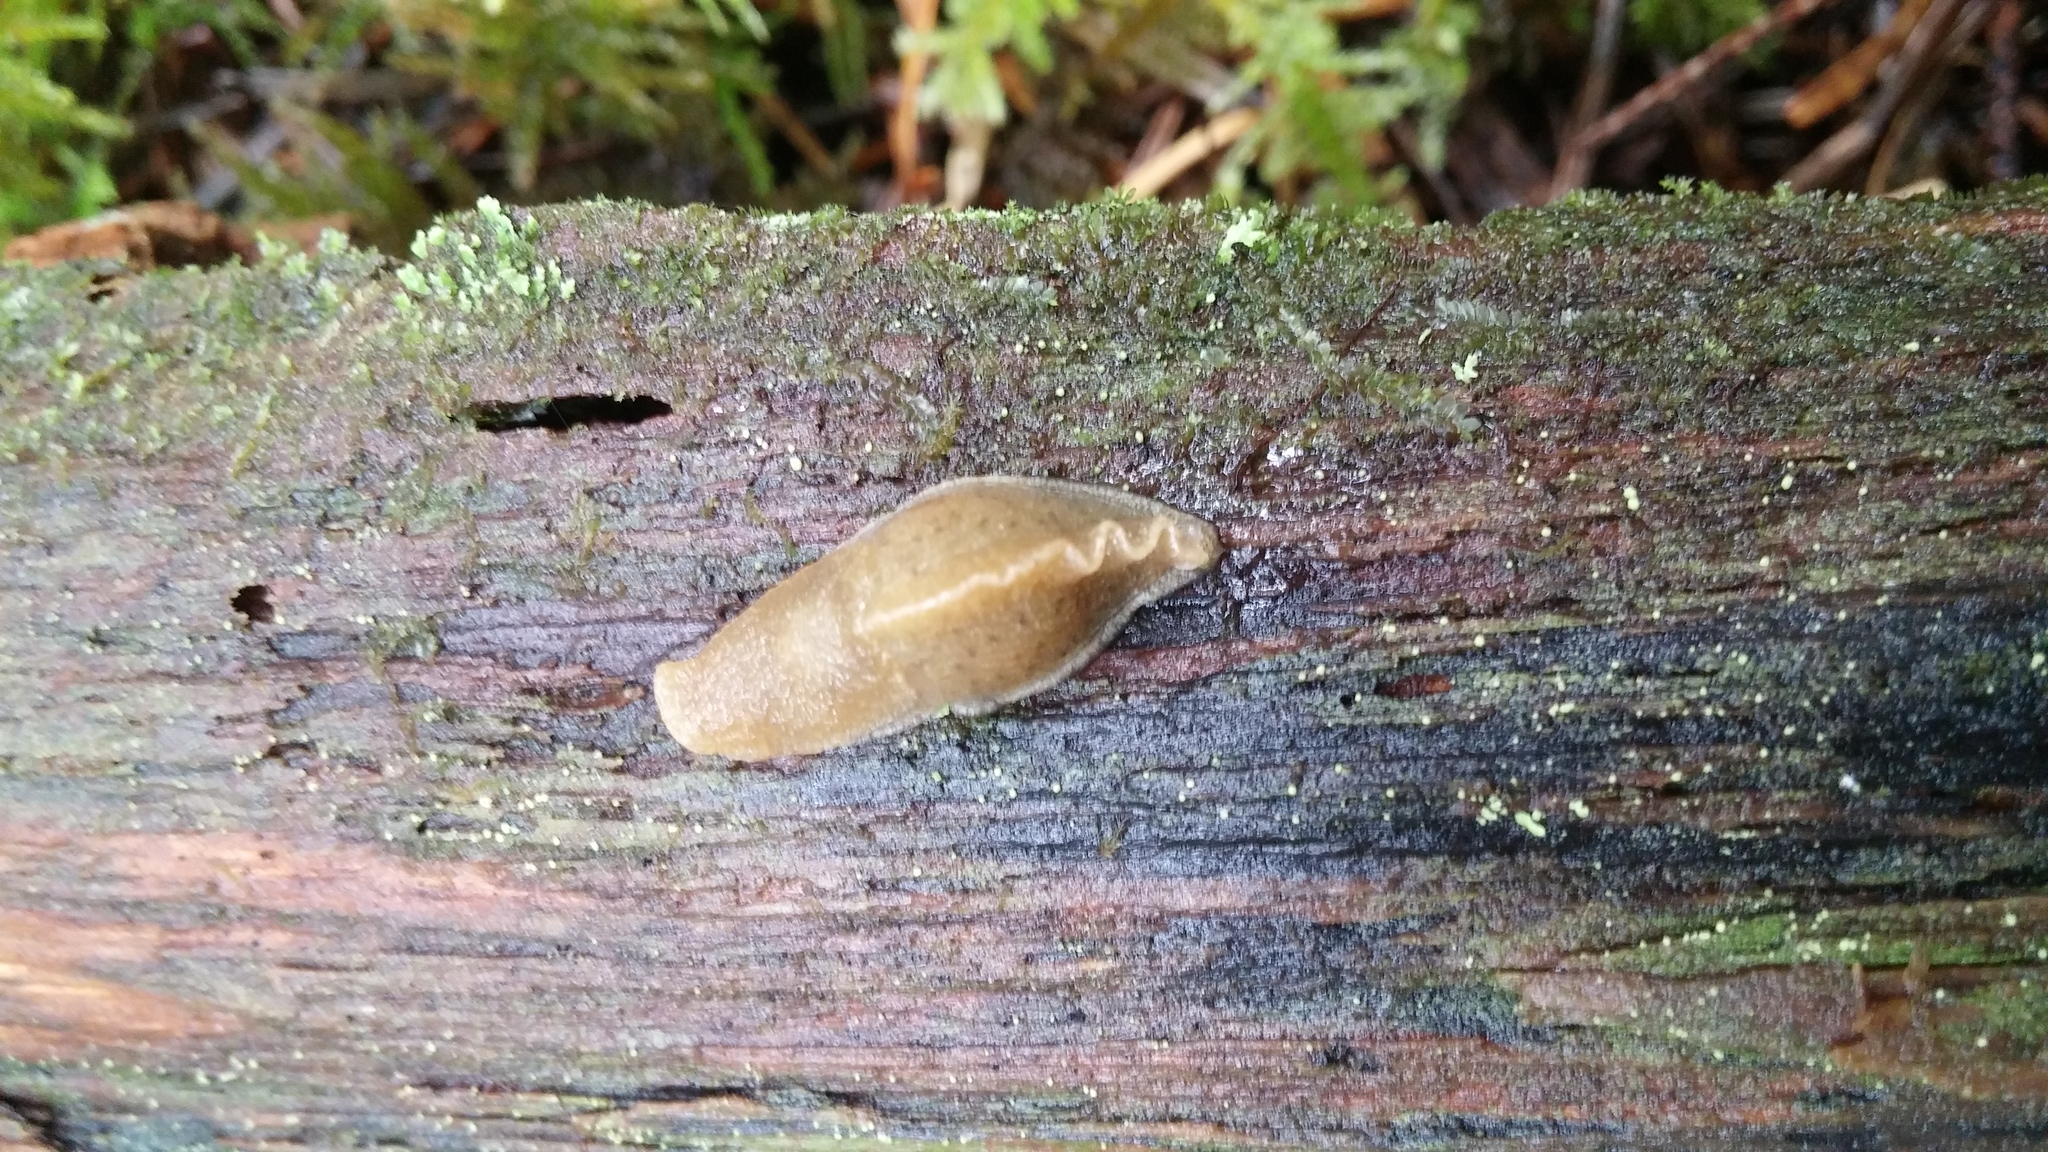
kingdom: Animalia
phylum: Mollusca
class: Gastropoda
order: Stylommatophora
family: Ariolimacidae
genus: Ariolimax
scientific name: Ariolimax columbianus
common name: Pacific banana slug
